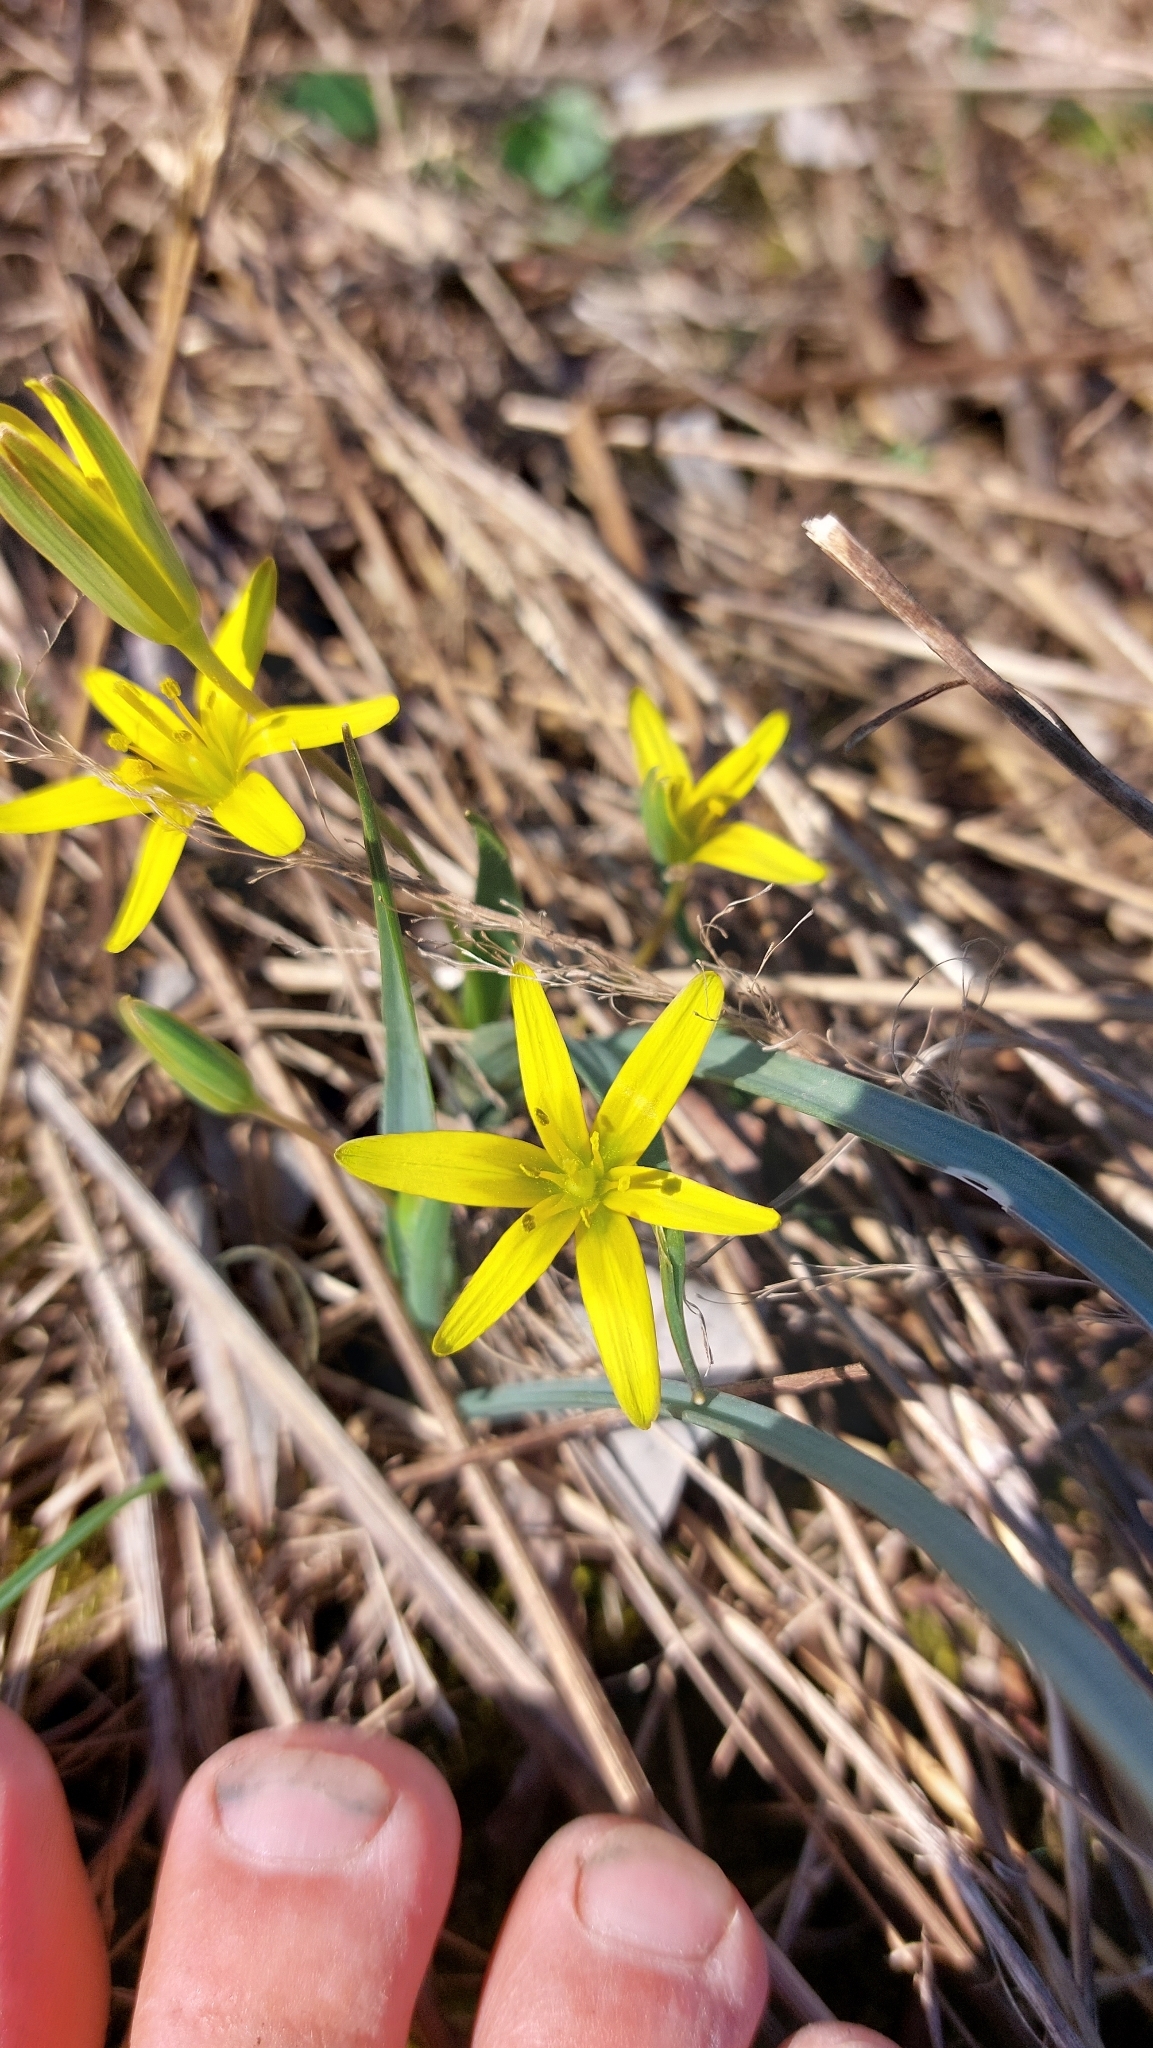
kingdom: Plantae
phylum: Tracheophyta
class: Liliopsida
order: Liliales
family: Liliaceae
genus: Gagea
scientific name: Gagea pratensis
